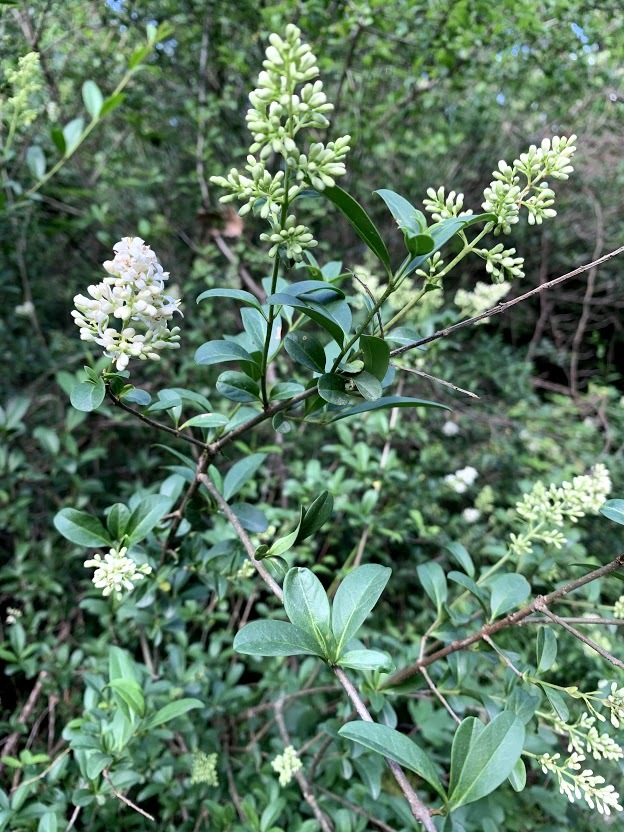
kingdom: Plantae
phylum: Tracheophyta
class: Magnoliopsida
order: Lamiales
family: Oleaceae
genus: Ligustrum
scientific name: Ligustrum vulgare
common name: Wild privet
